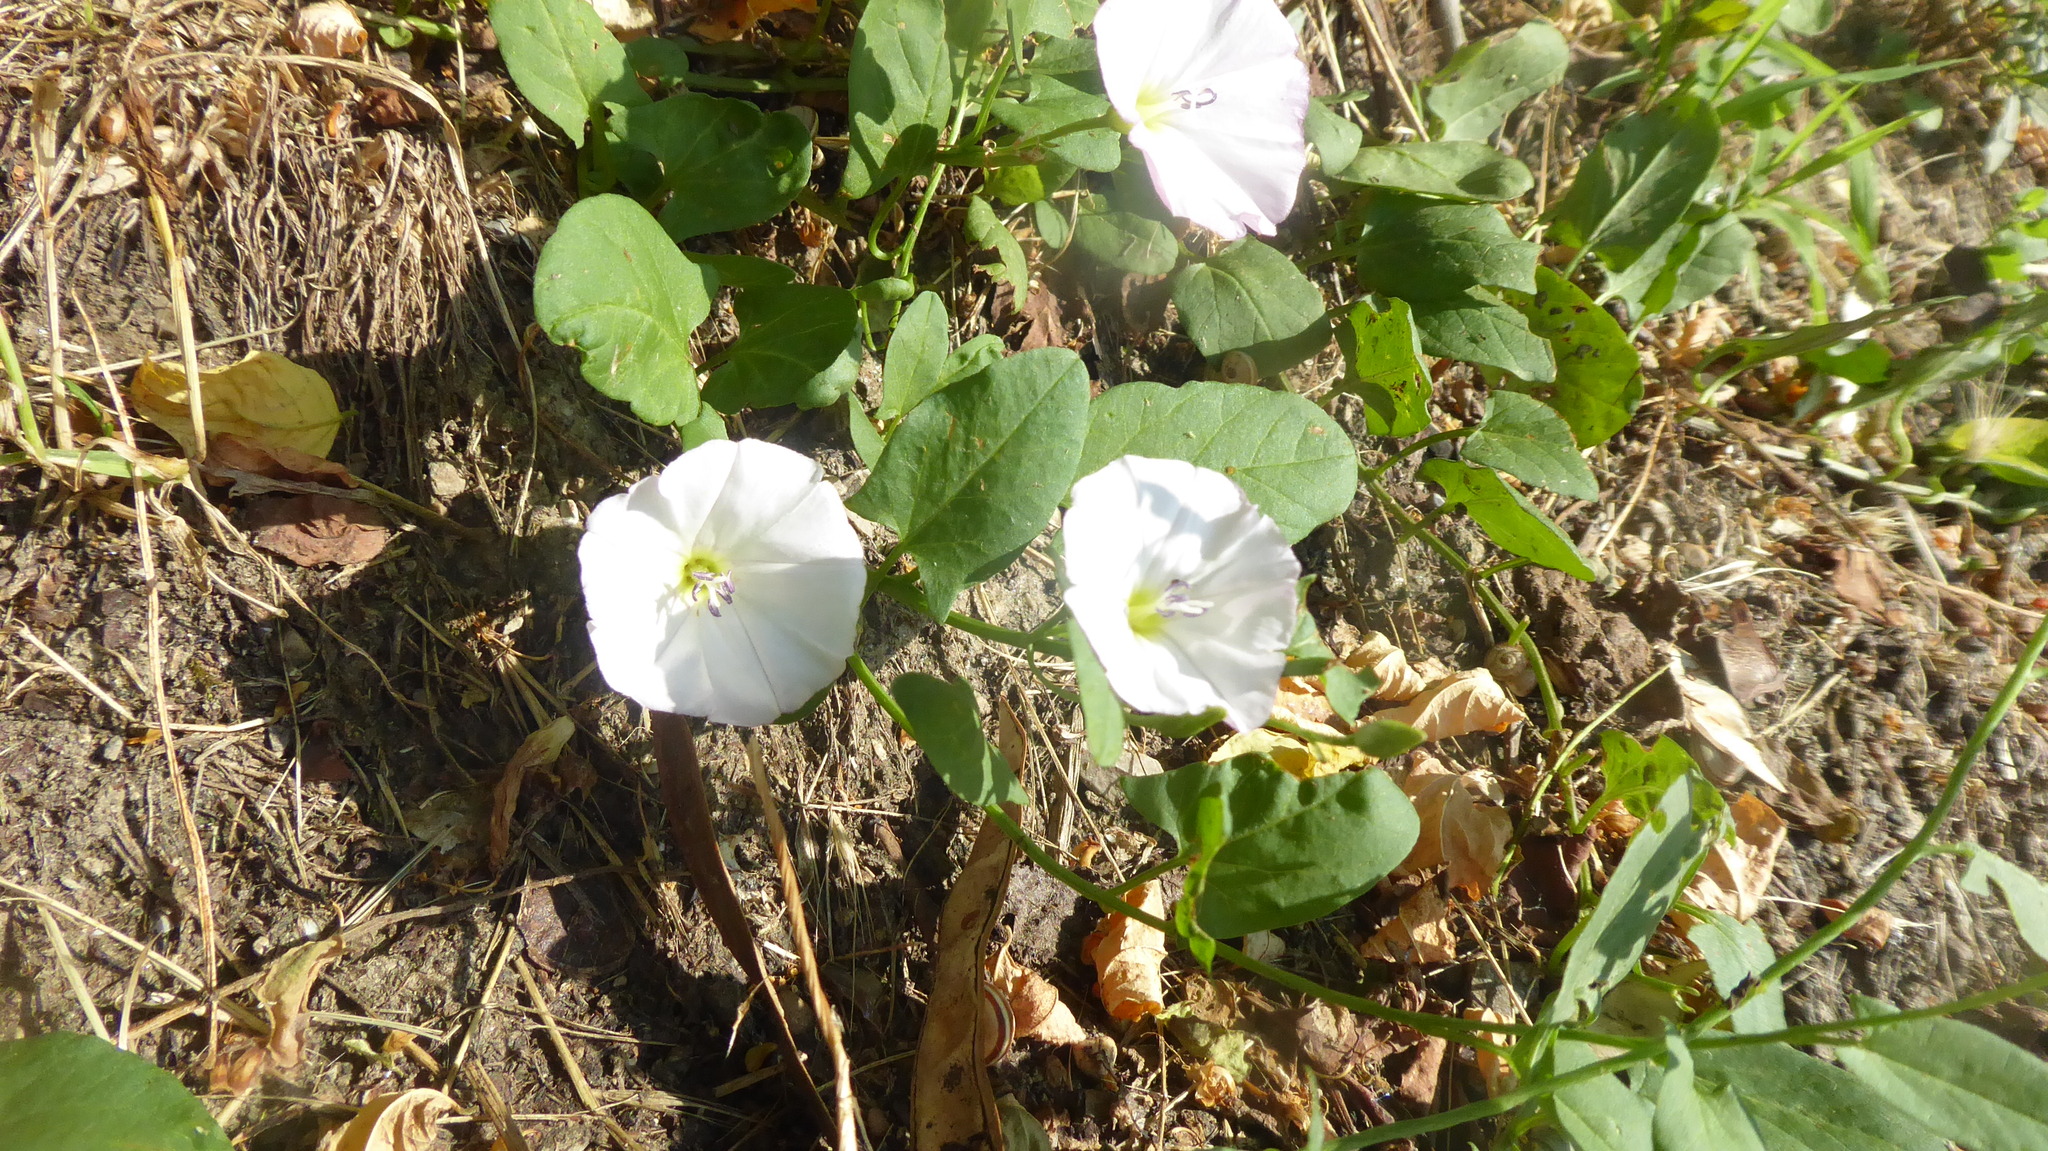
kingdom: Plantae
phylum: Tracheophyta
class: Magnoliopsida
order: Solanales
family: Convolvulaceae
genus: Convolvulus
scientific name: Convolvulus arvensis
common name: Field bindweed
